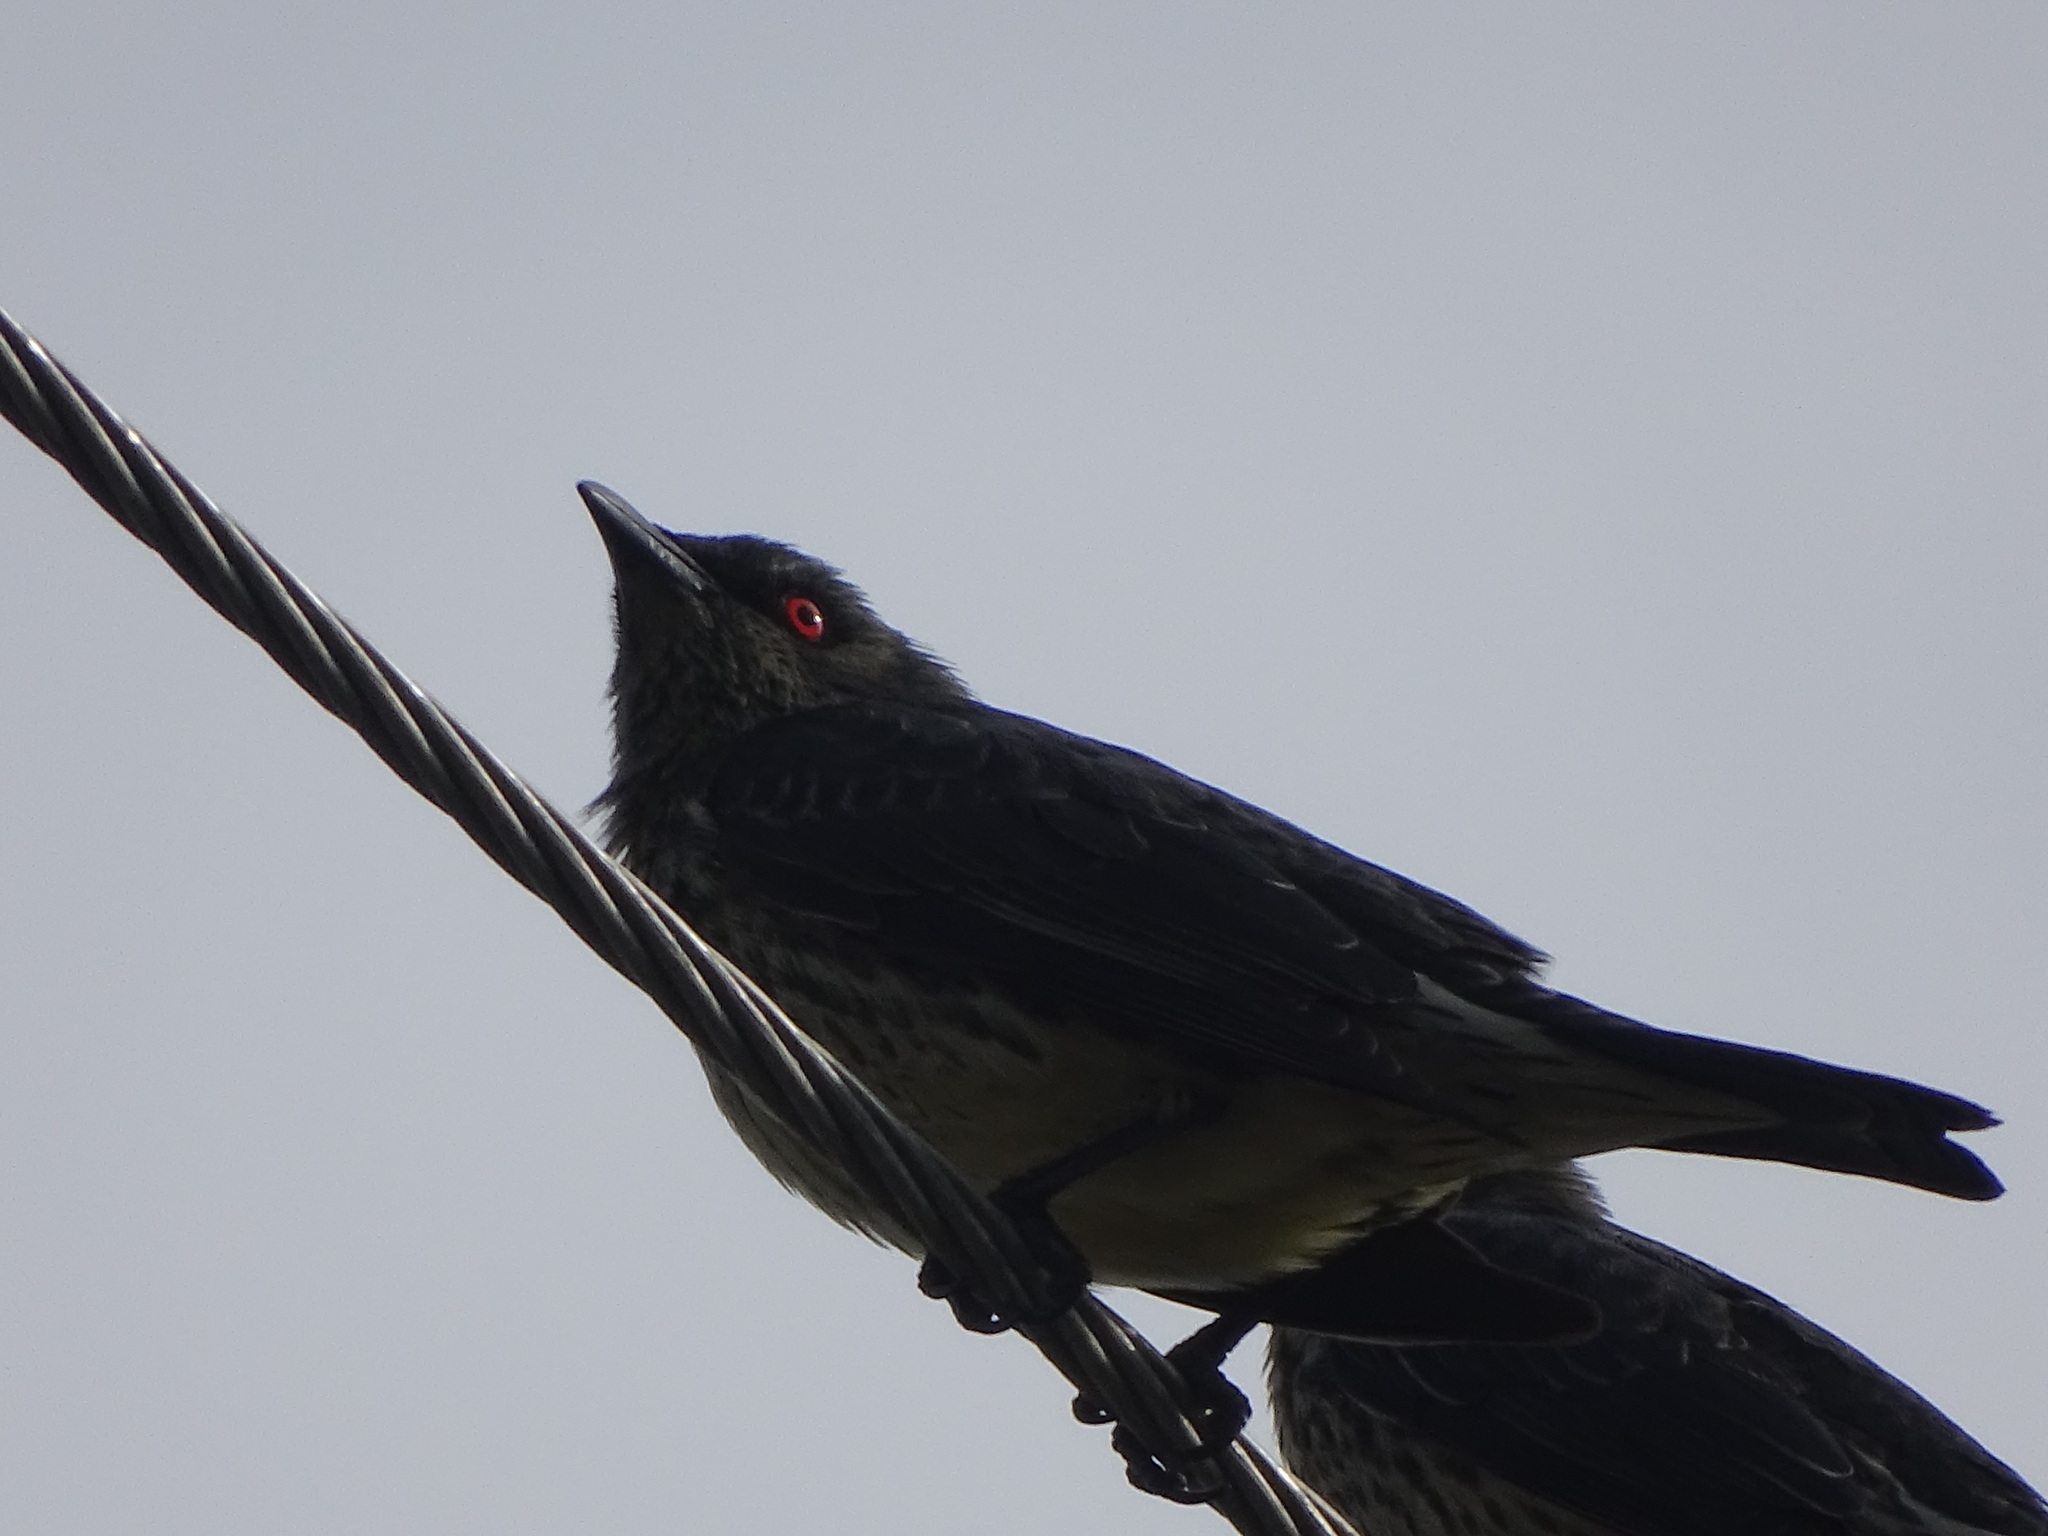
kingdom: Animalia
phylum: Chordata
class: Aves
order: Passeriformes
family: Sturnidae
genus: Aplonis
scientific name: Aplonis panayensis
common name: Asian glossy starling
